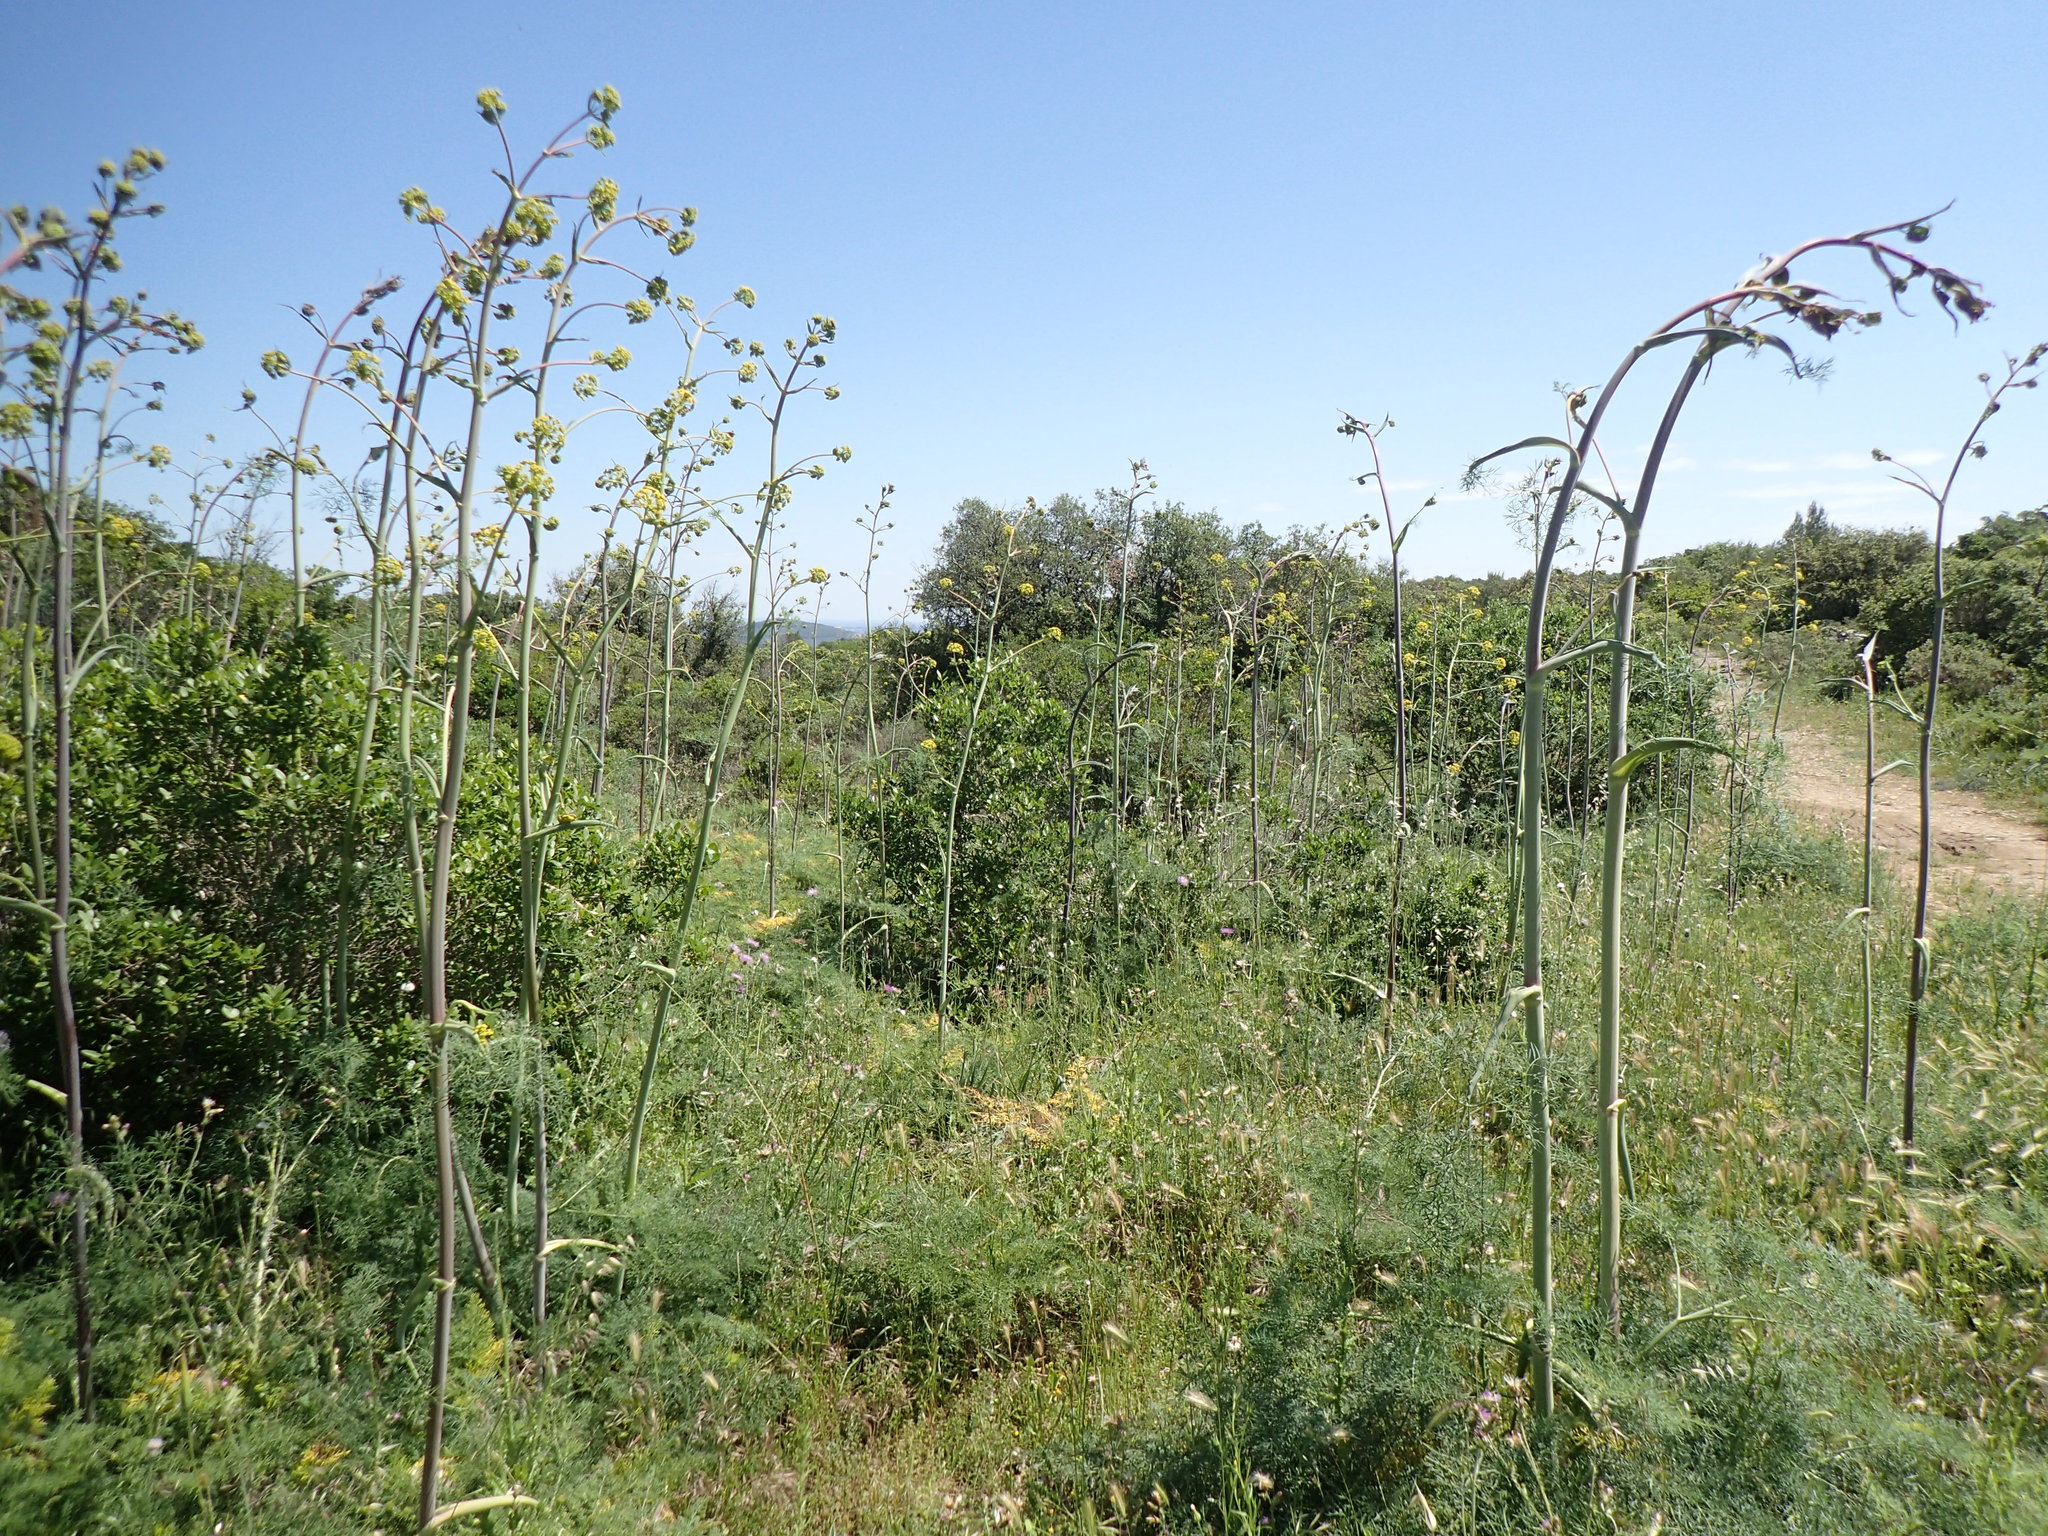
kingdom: Plantae
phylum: Tracheophyta
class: Magnoliopsida
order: Apiales
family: Apiaceae
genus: Ferula
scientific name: Ferula glauca
